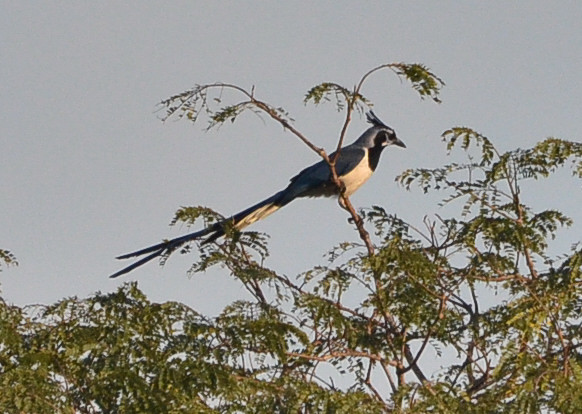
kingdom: Animalia
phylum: Chordata
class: Aves
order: Passeriformes
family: Corvidae
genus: Calocitta
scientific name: Calocitta colliei
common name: Black-throated magpie-jay
